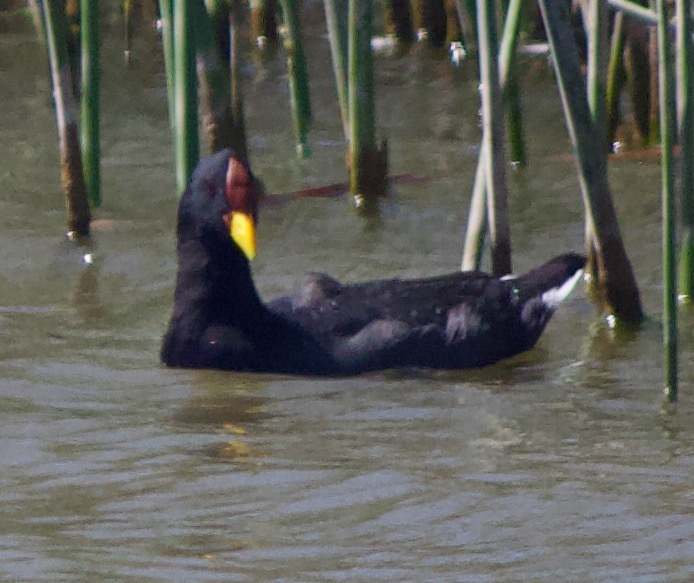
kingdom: Animalia
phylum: Chordata
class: Aves
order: Gruiformes
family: Rallidae
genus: Fulica
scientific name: Fulica rufifrons
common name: Red-fronted coot
